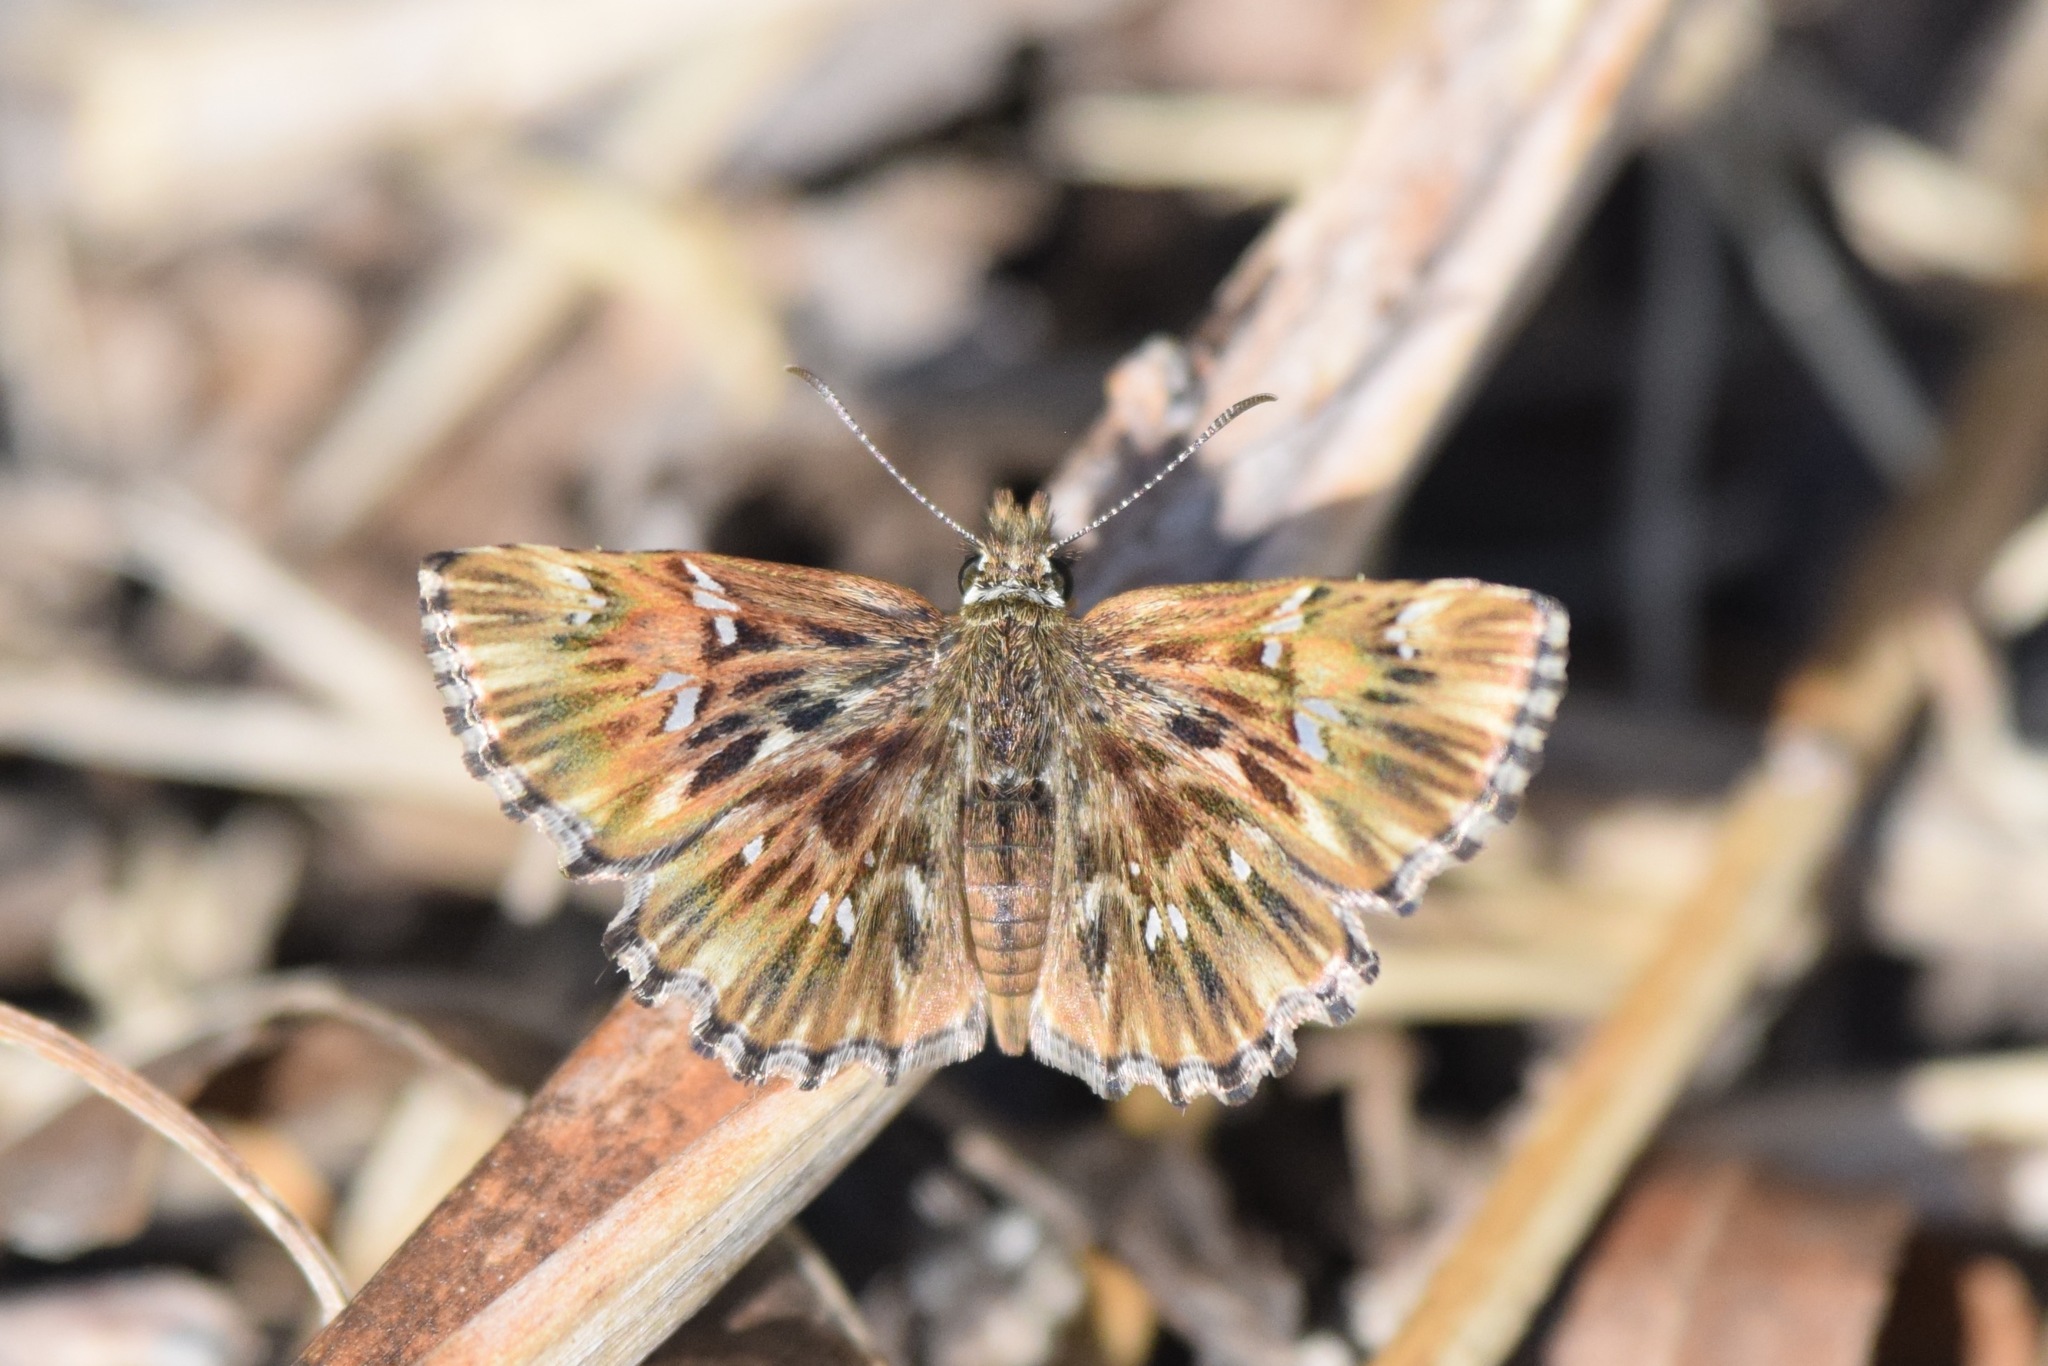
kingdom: Animalia
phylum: Arthropoda
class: Insecta
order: Lepidoptera
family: Hesperiidae
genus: Celotes
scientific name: Celotes nessus
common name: Common streaky-skipper
